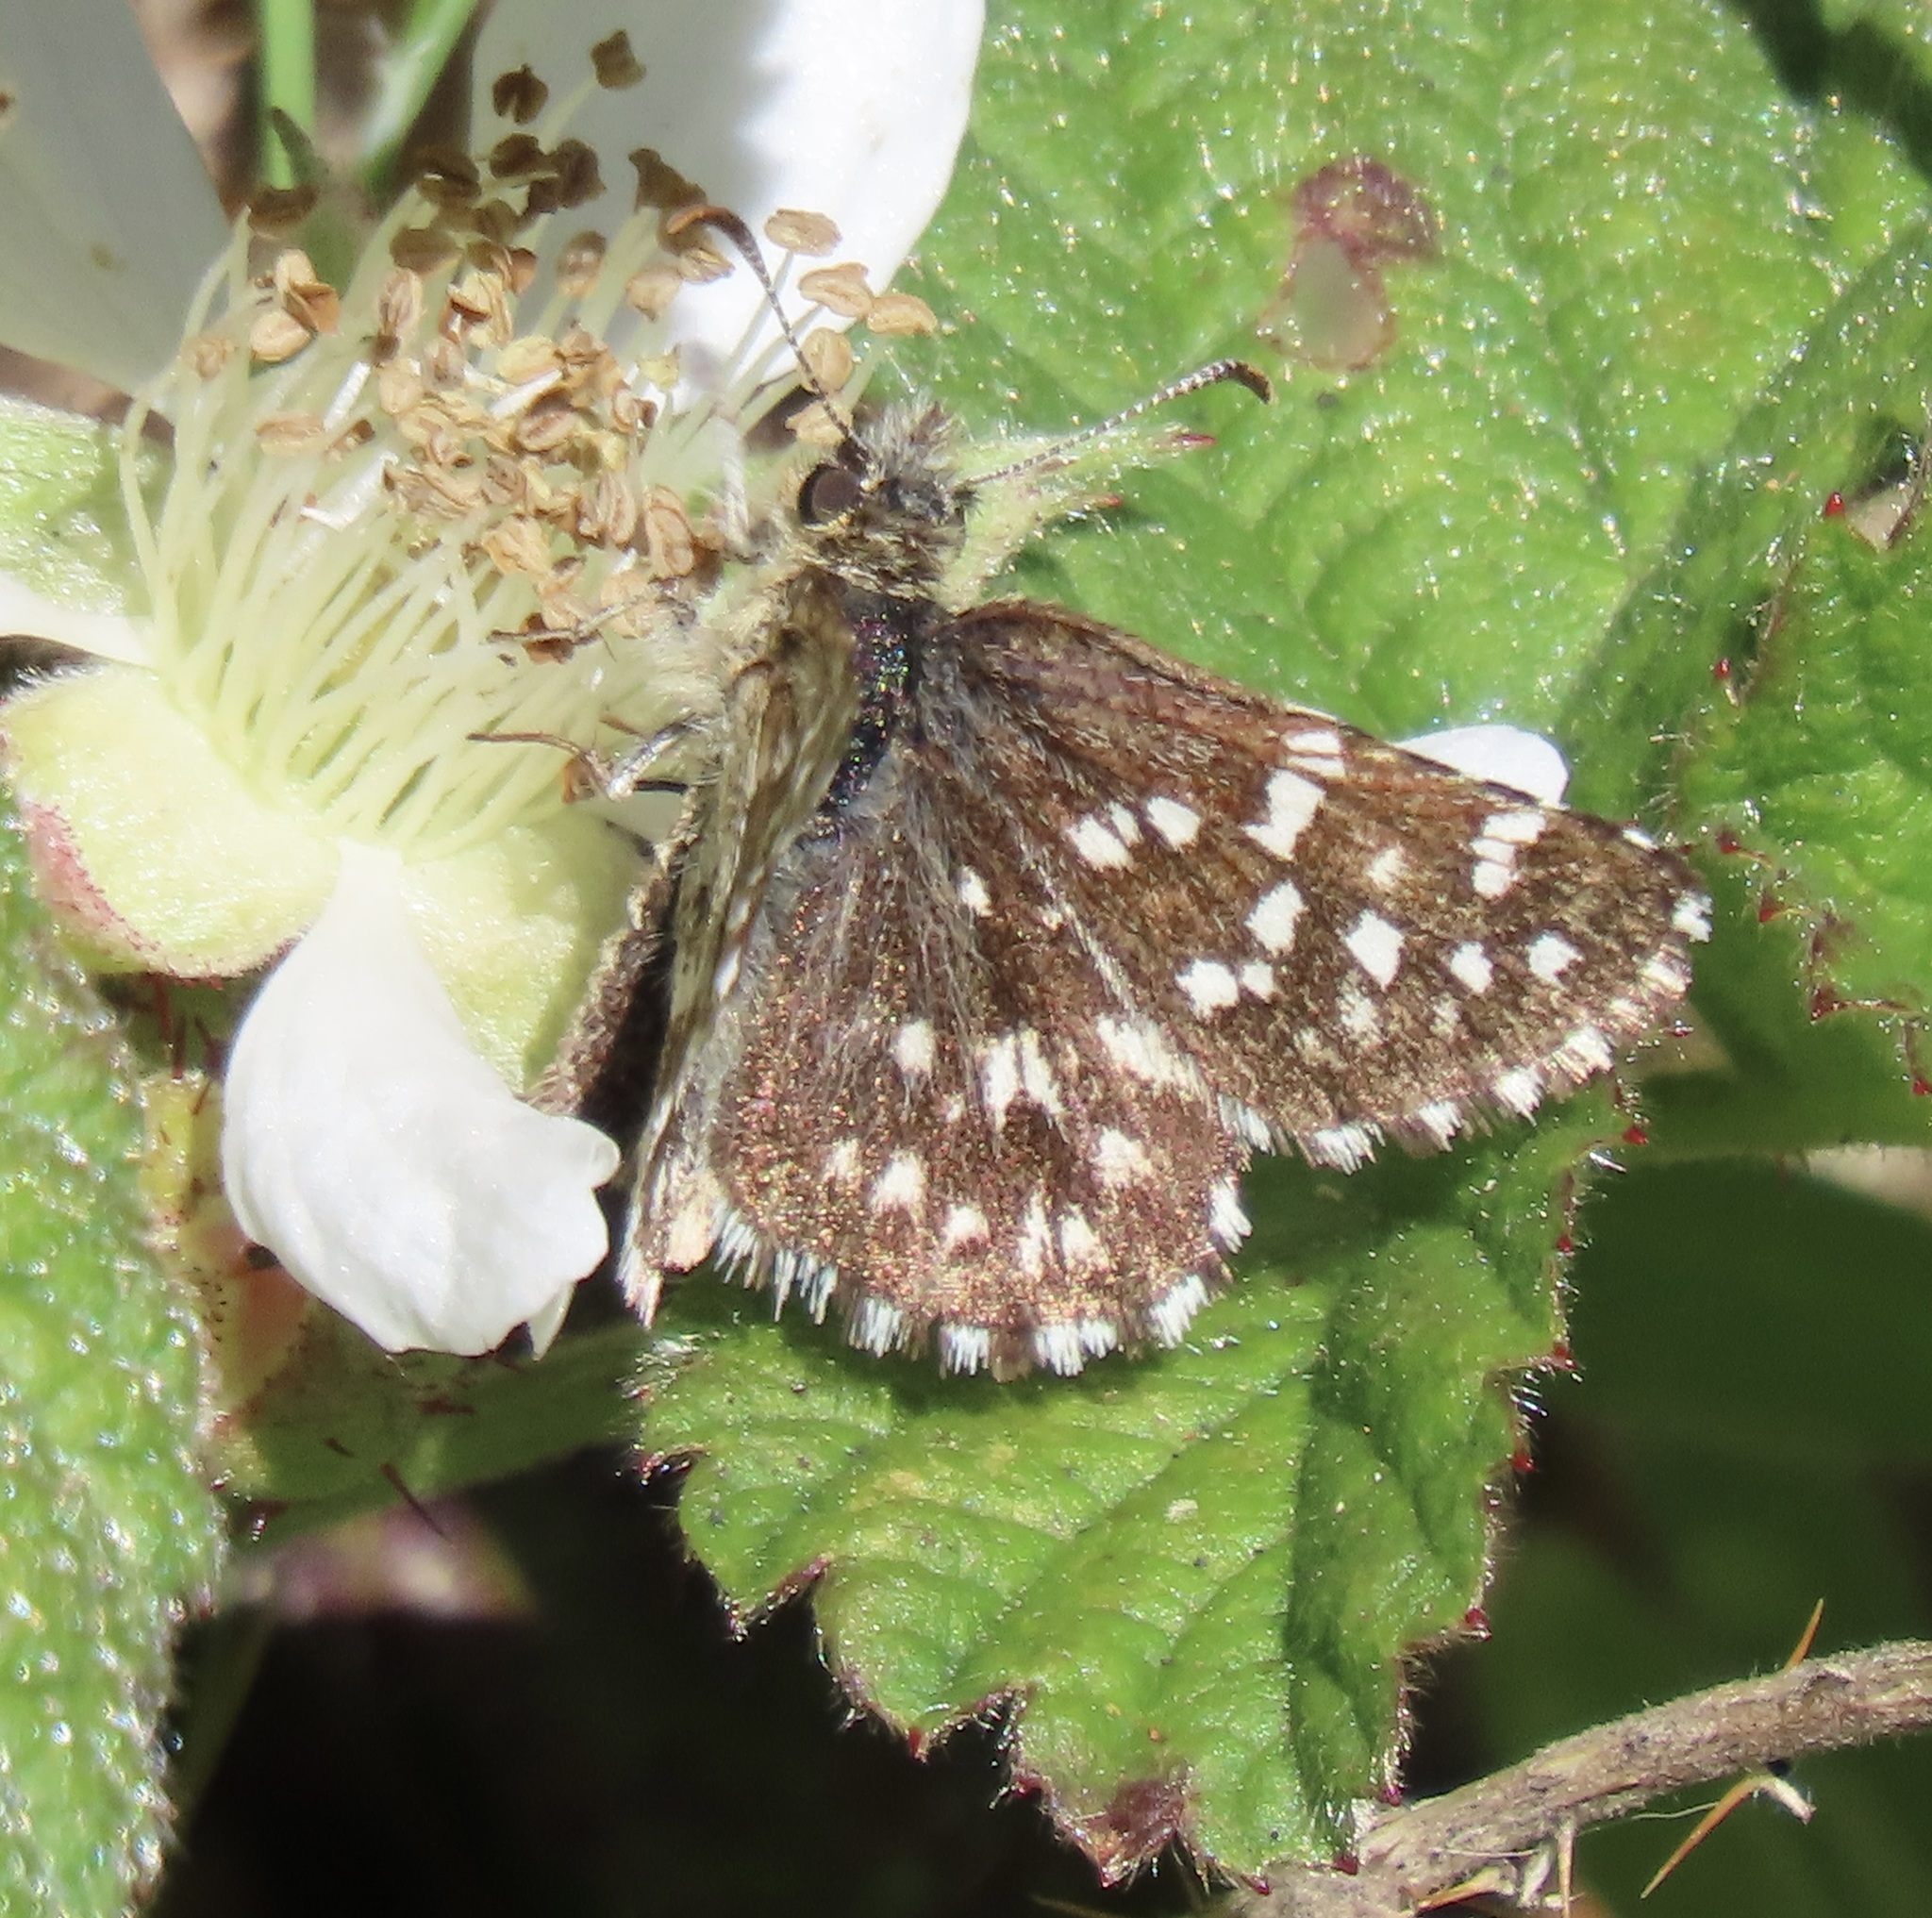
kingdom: Animalia
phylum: Arthropoda
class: Insecta
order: Lepidoptera
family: Hesperiidae
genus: Pyrgus
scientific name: Pyrgus ruralis
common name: Two-banded checkered-skipper
